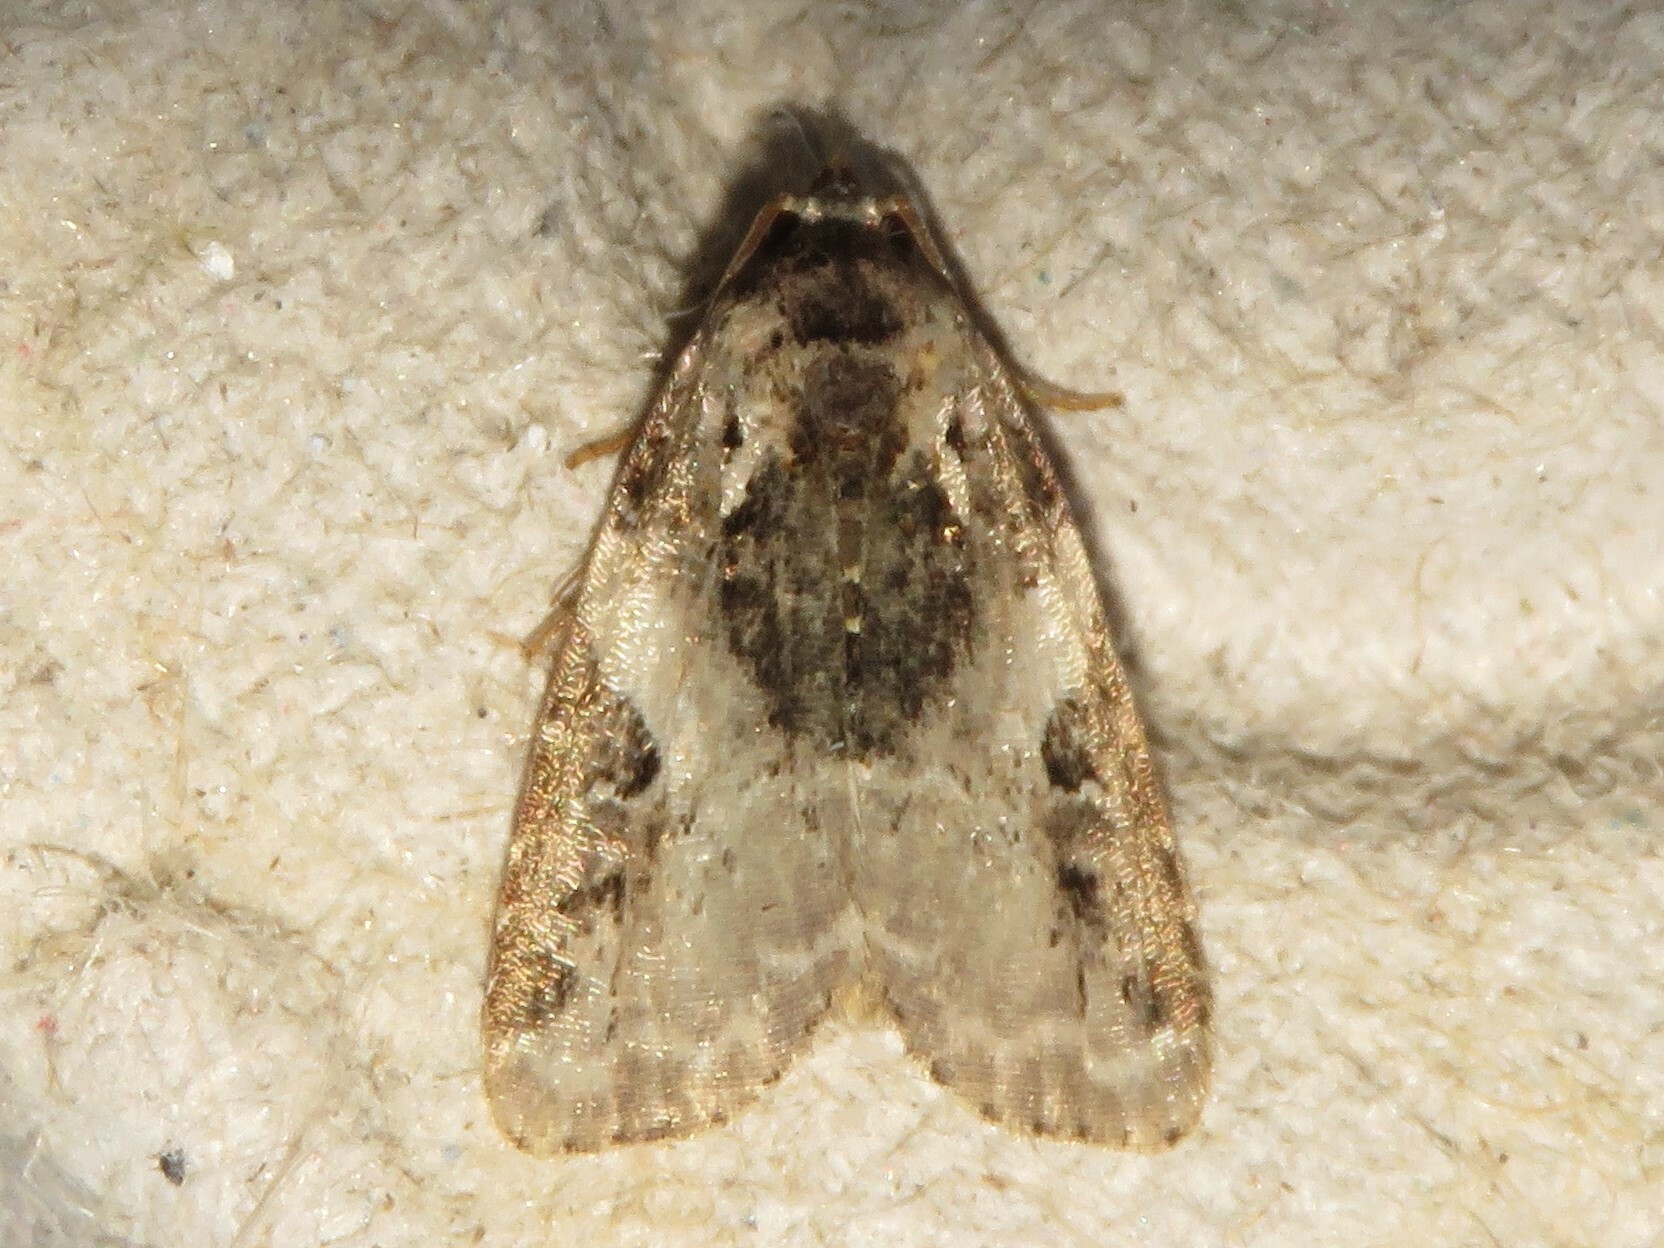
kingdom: Animalia
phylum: Arthropoda
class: Insecta
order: Lepidoptera
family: Noctuidae
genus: Pseudeustrotia
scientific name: Pseudeustrotia carneola
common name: Pink-barred lithacodia moth
